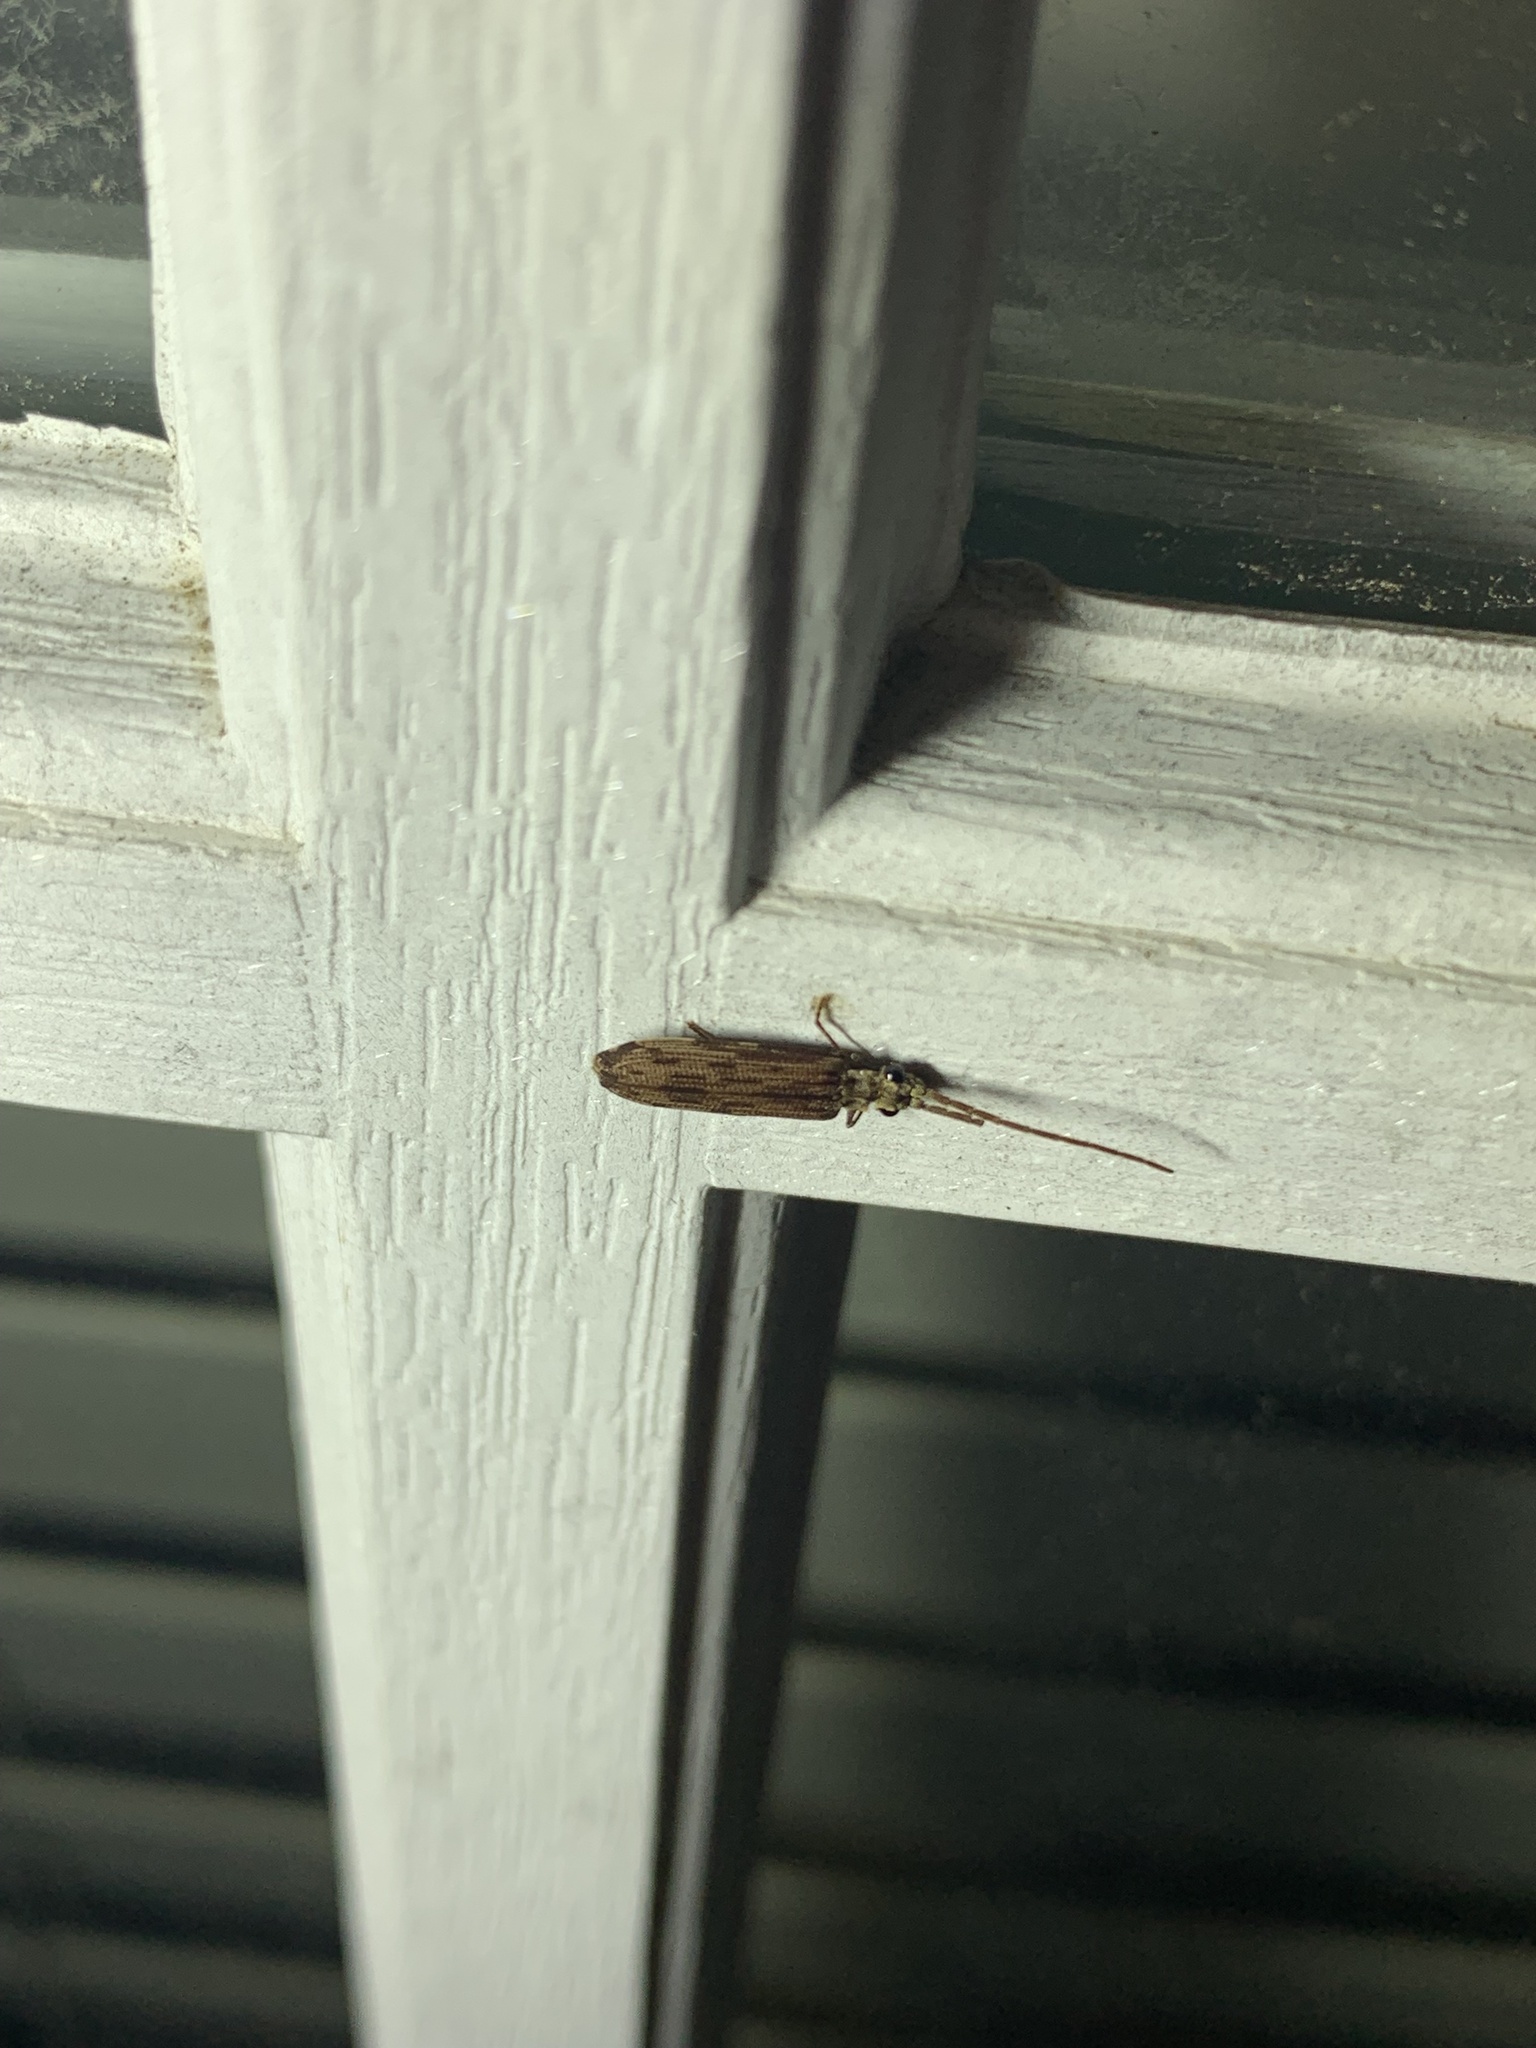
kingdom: Animalia
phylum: Arthropoda
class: Insecta
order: Coleoptera
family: Cupedidae
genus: Tenomerga
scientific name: Tenomerga cinerea
